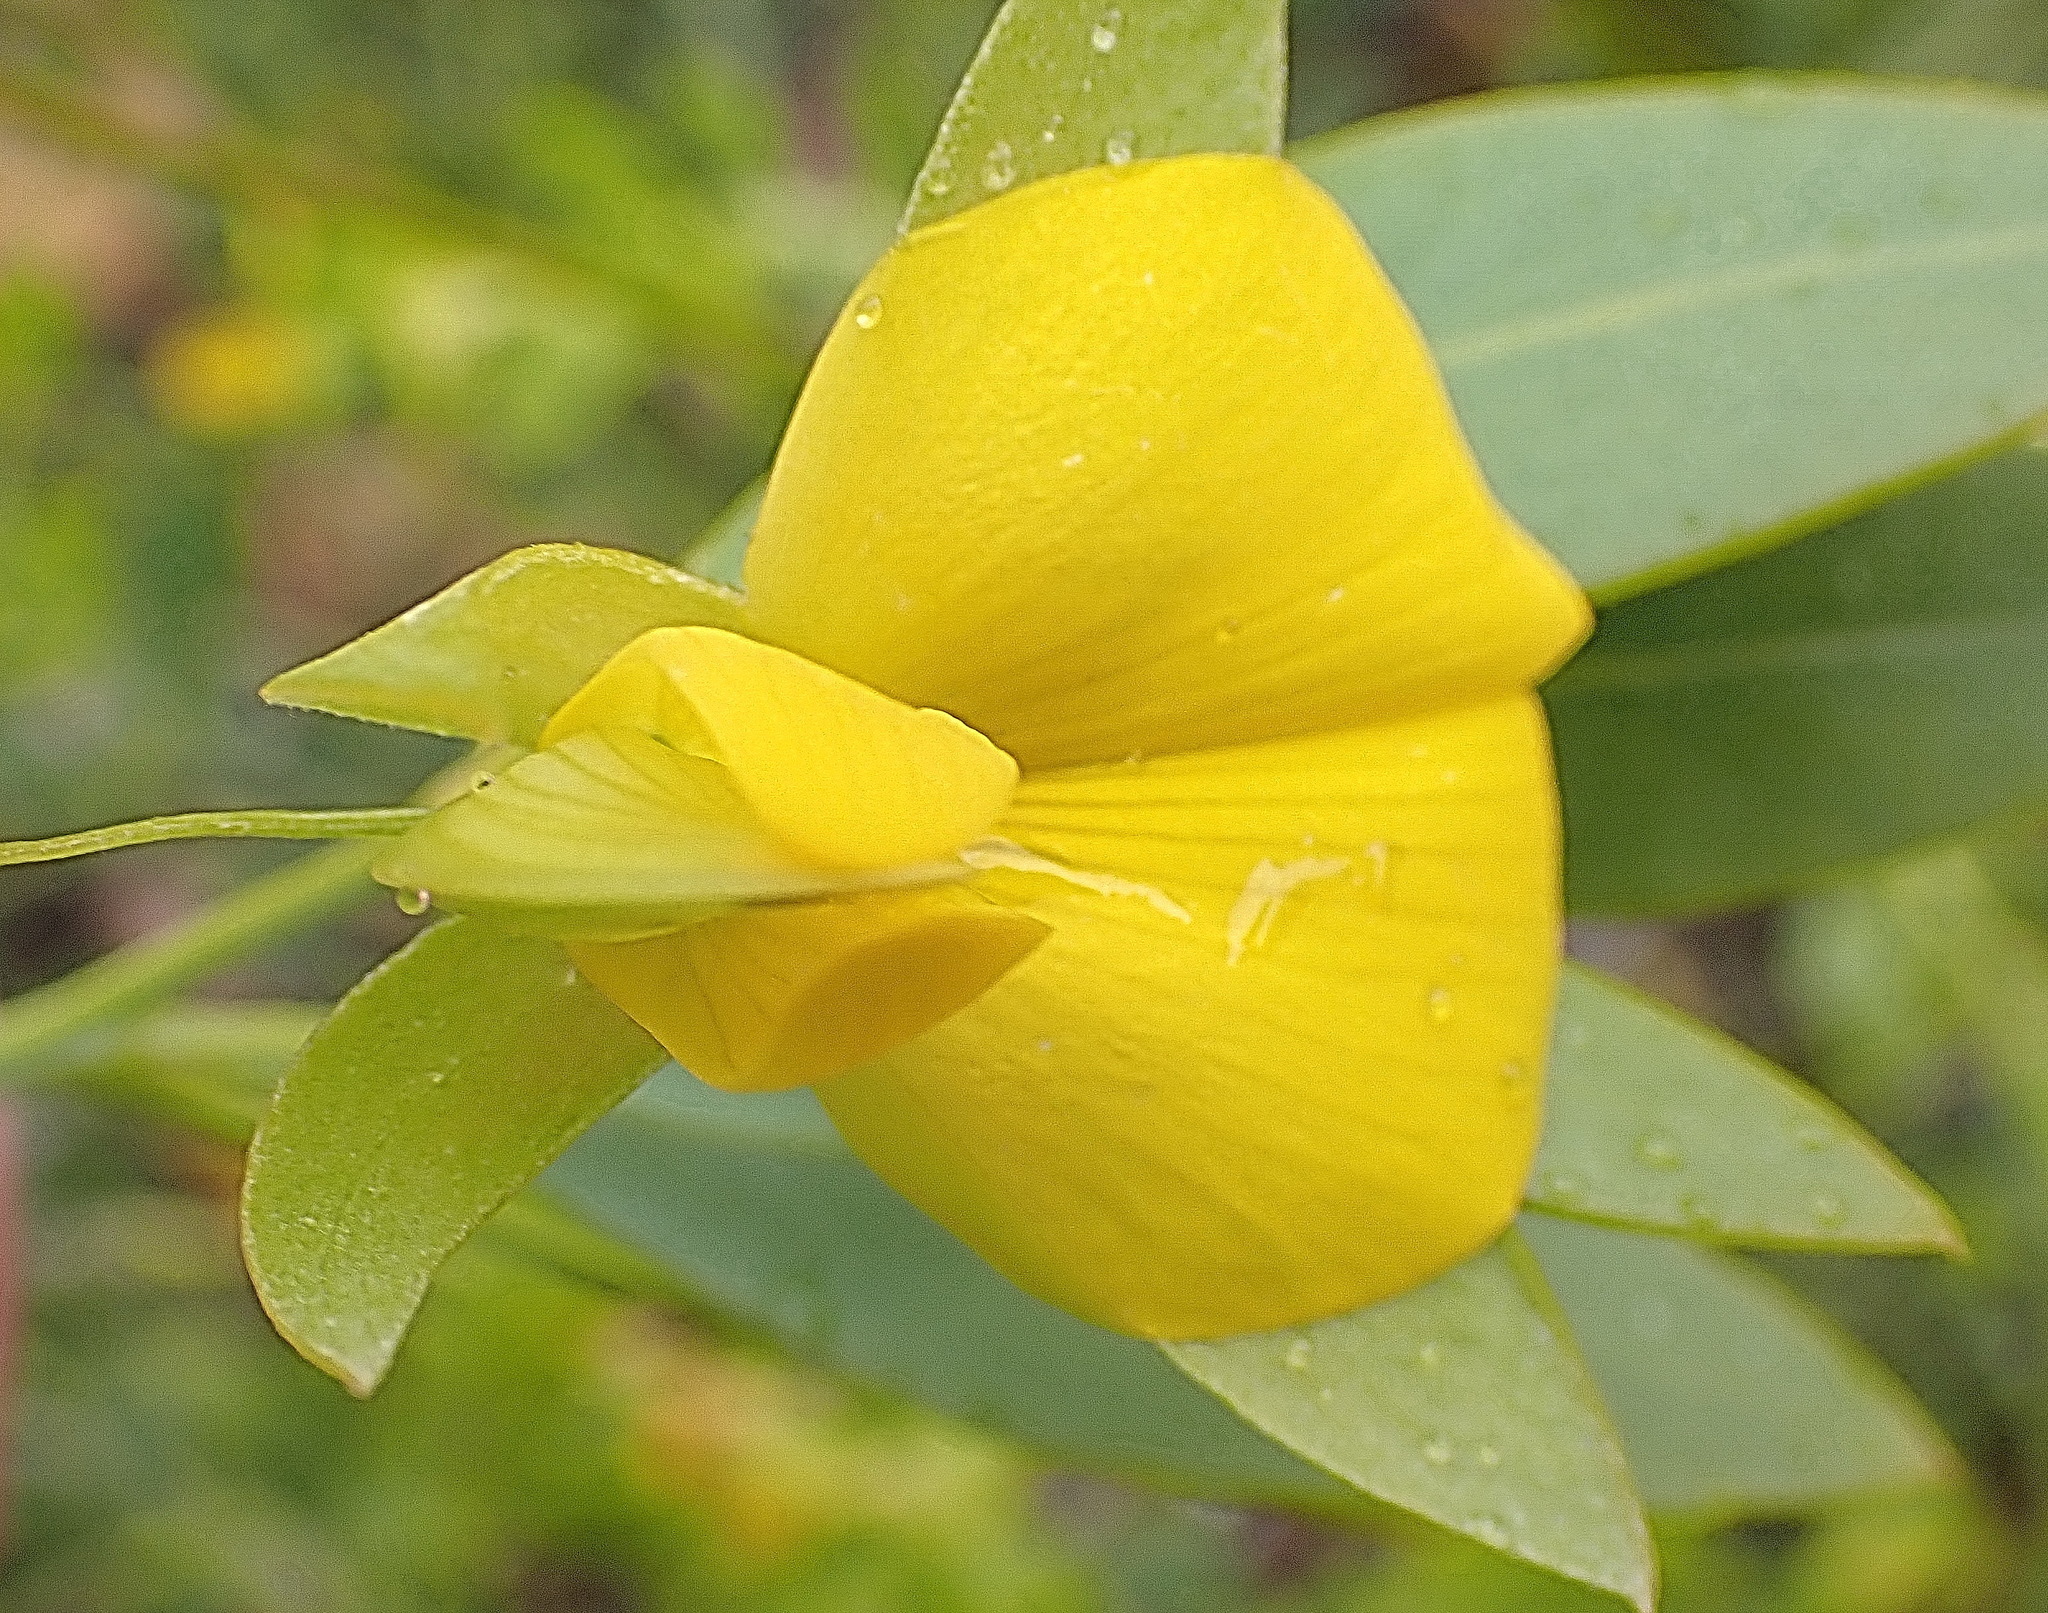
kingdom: Plantae
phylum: Tracheophyta
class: Magnoliopsida
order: Fabales
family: Fabaceae
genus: Rafnia
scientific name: Rafnia vlokii
